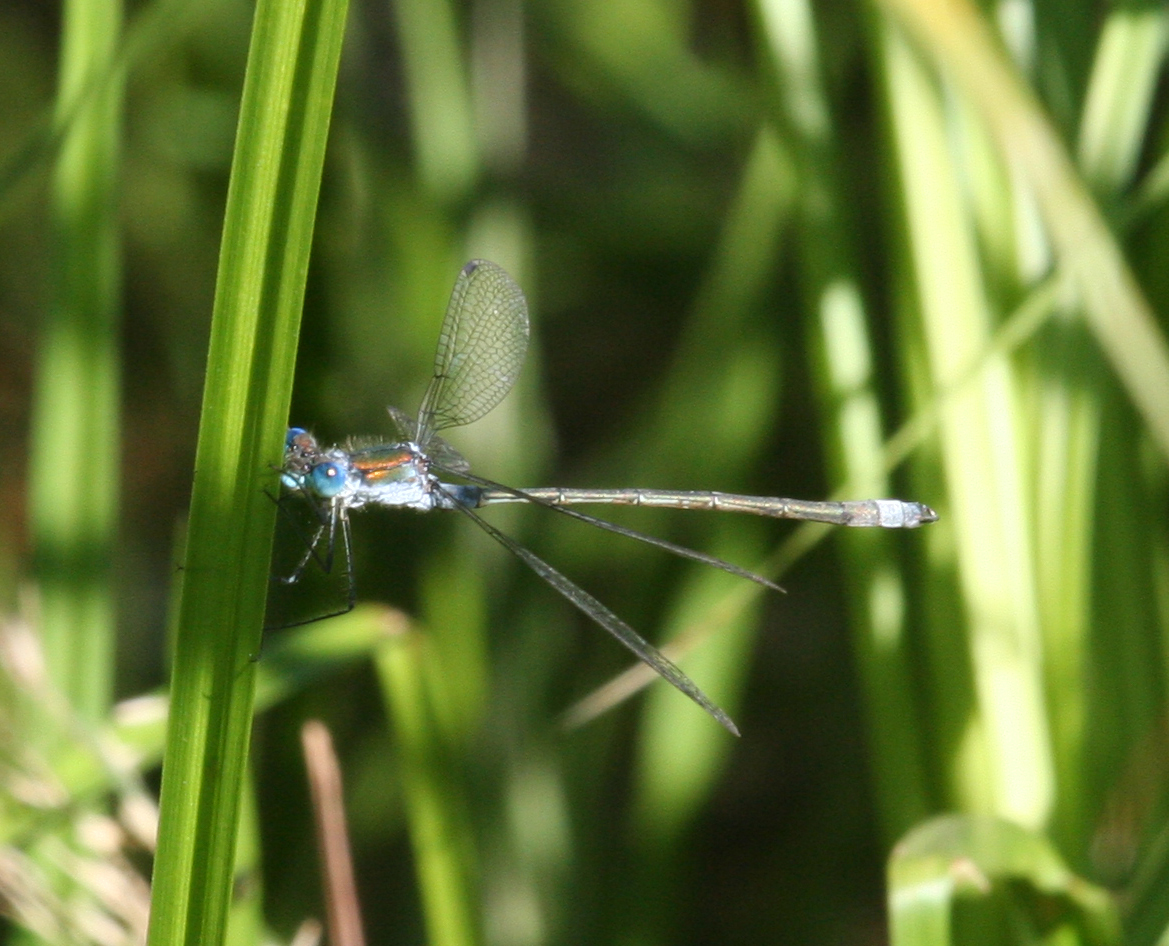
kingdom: Animalia
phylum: Arthropoda
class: Insecta
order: Odonata
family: Lestidae
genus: Lestes
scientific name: Lestes sponsa
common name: Common spreadwing
